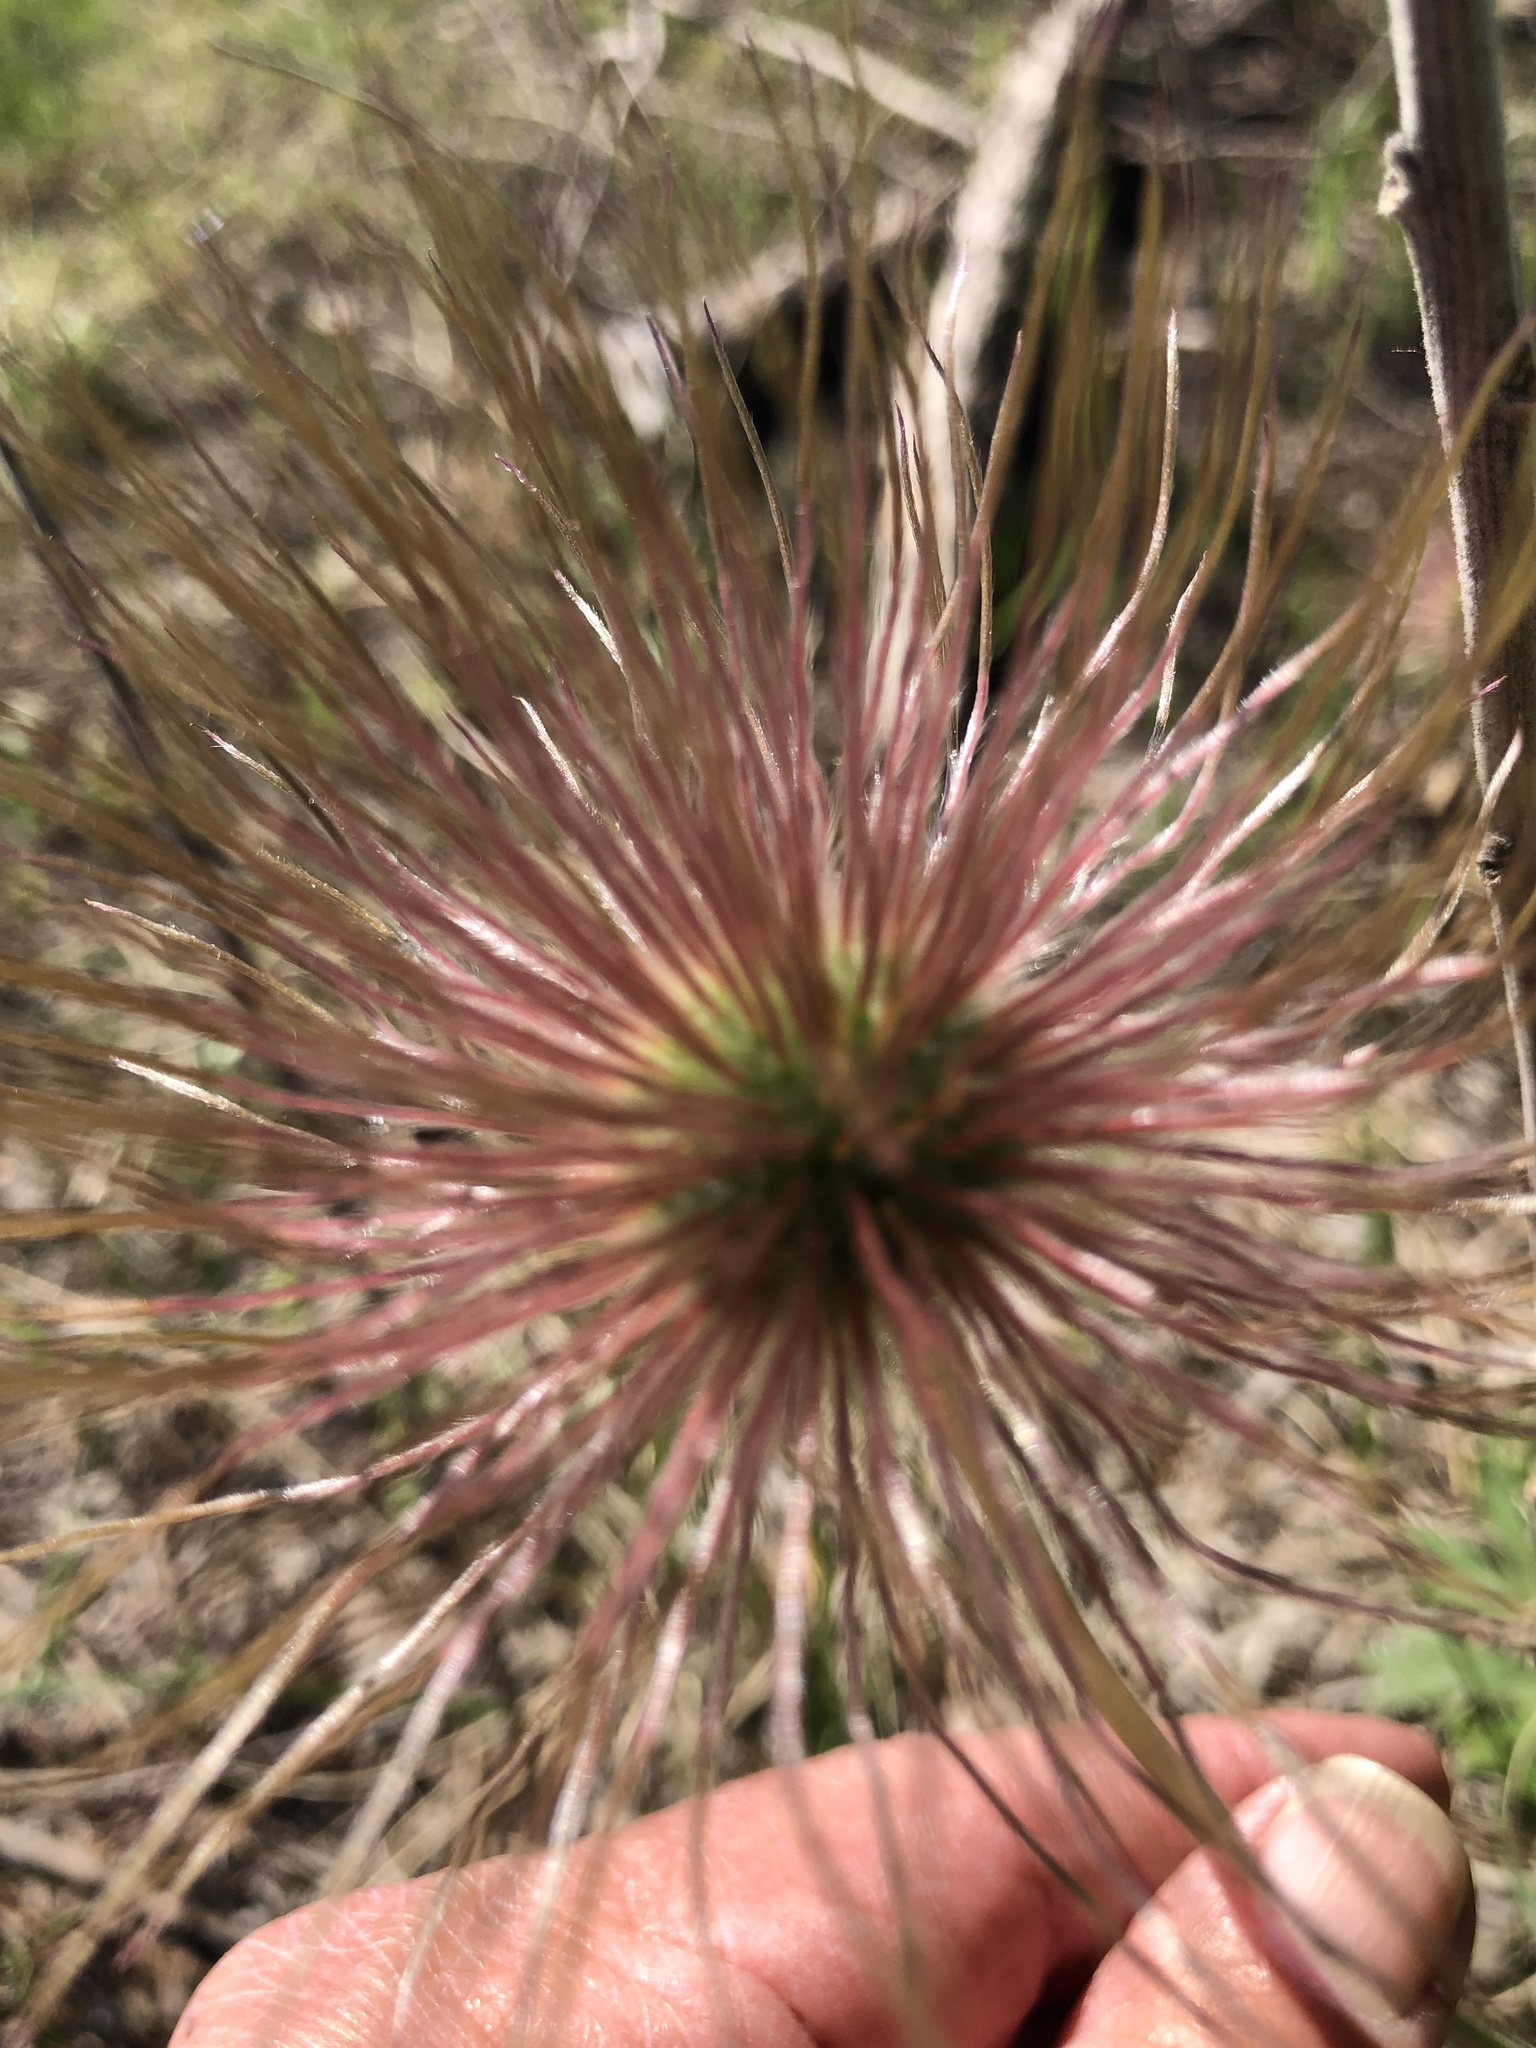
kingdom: Plantae
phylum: Tracheophyta
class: Magnoliopsida
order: Ranunculales
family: Ranunculaceae
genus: Pulsatilla
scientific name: Pulsatilla nuttalliana
